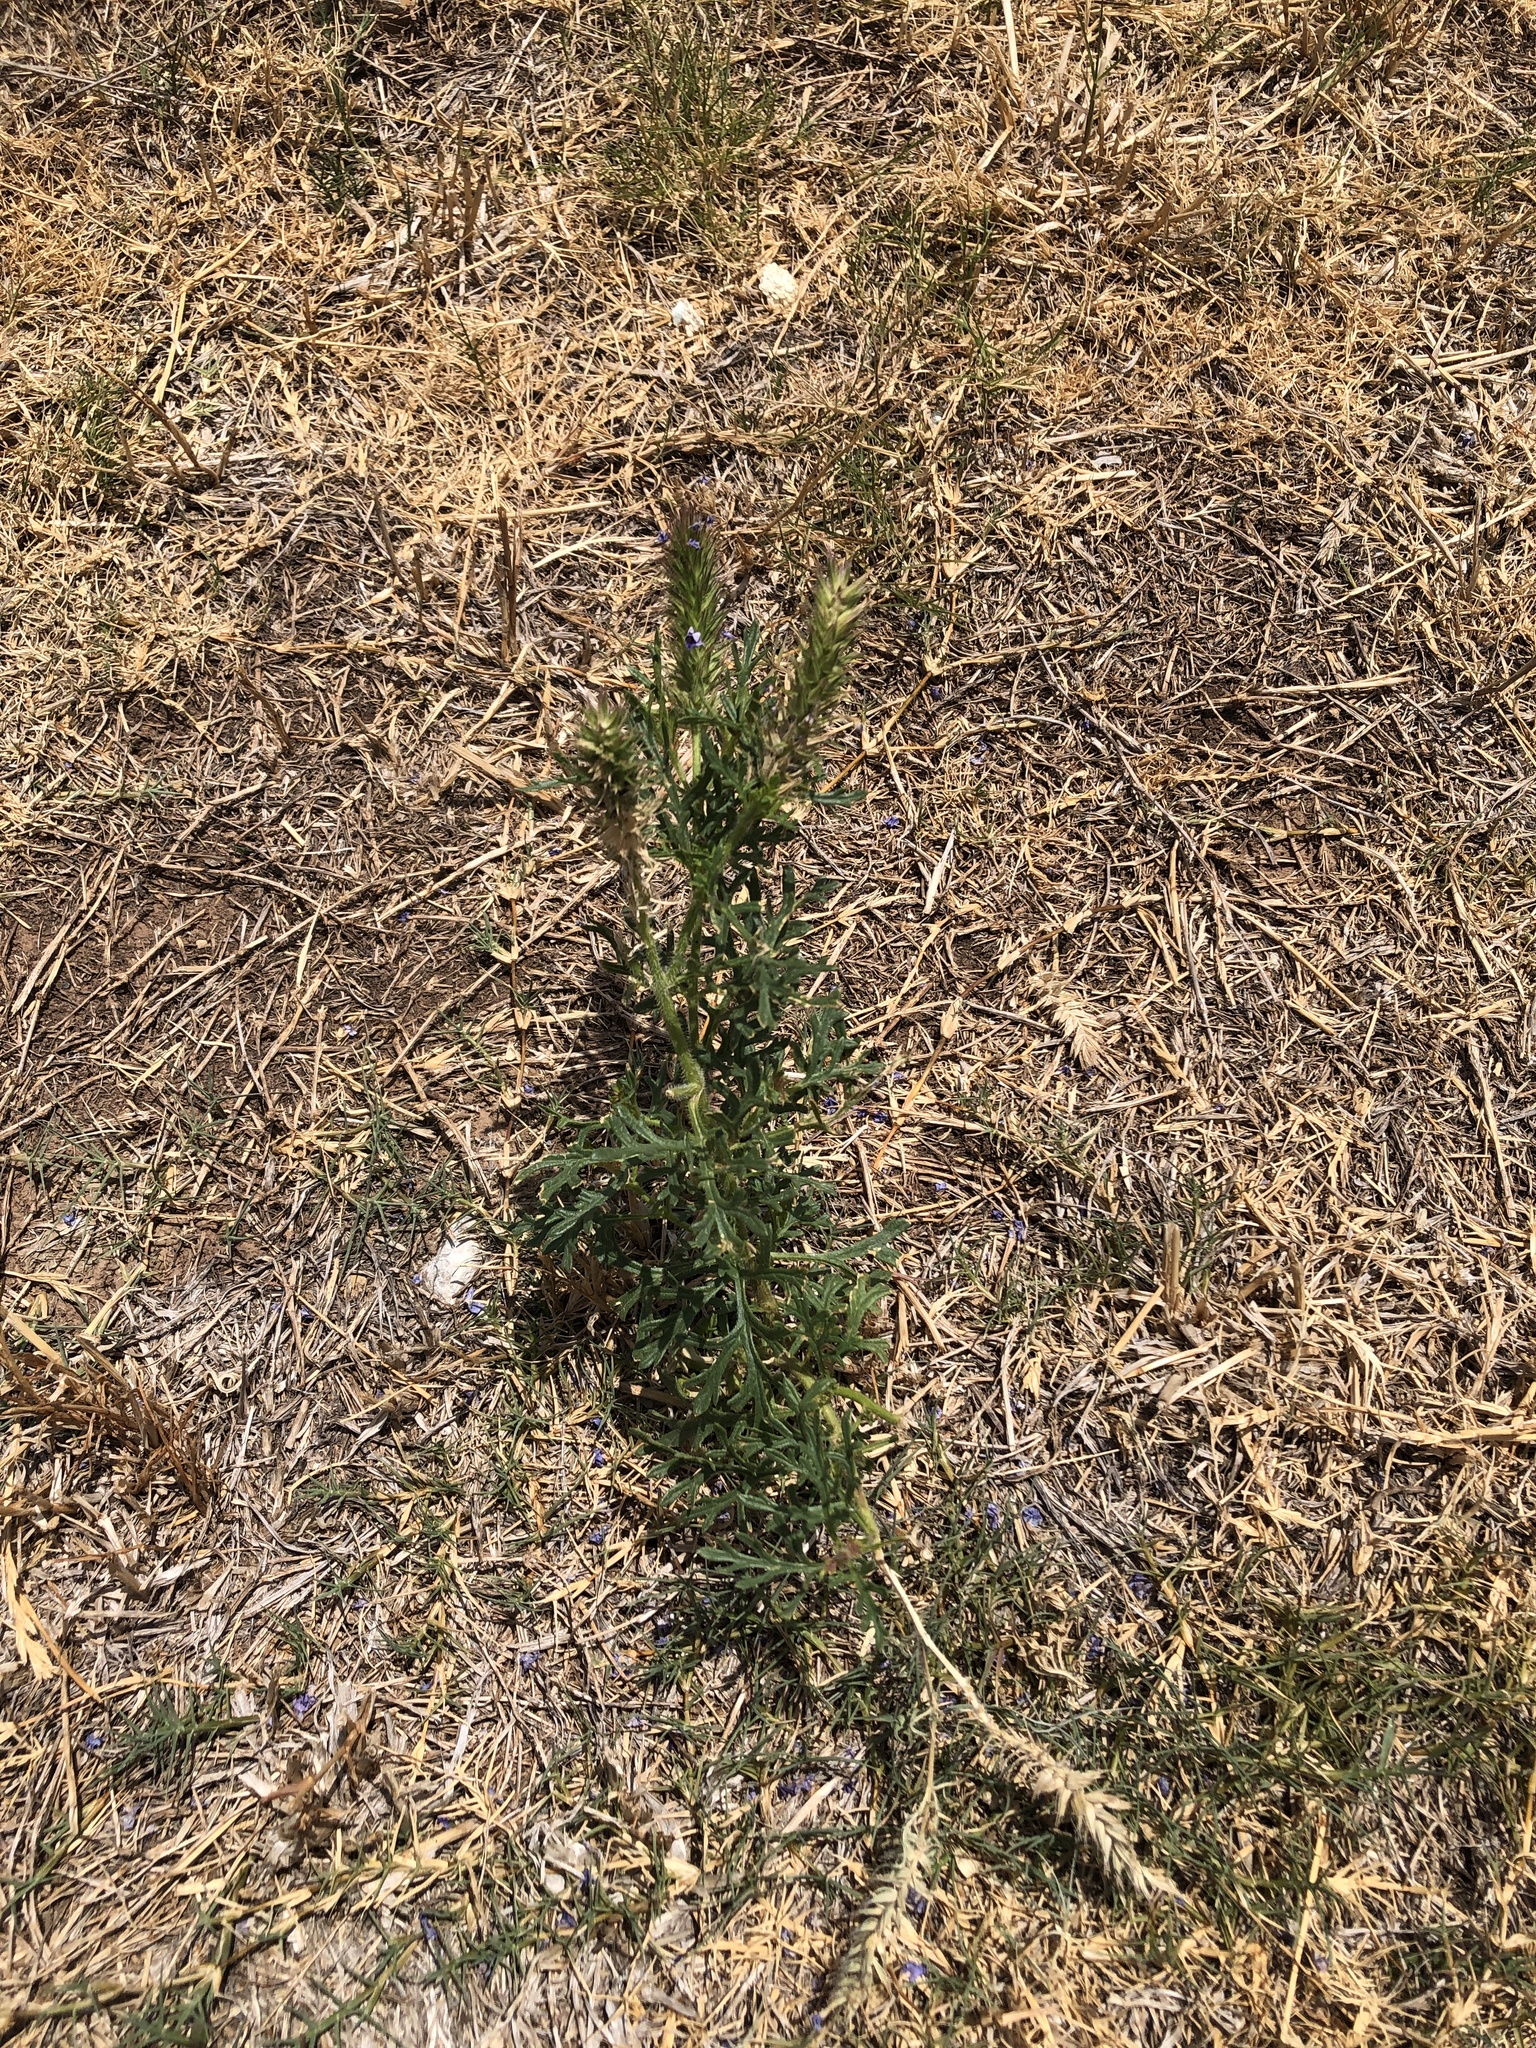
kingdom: Plantae
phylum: Tracheophyta
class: Magnoliopsida
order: Lamiales
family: Verbenaceae
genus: Verbena
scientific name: Verbena bipinnatifida
